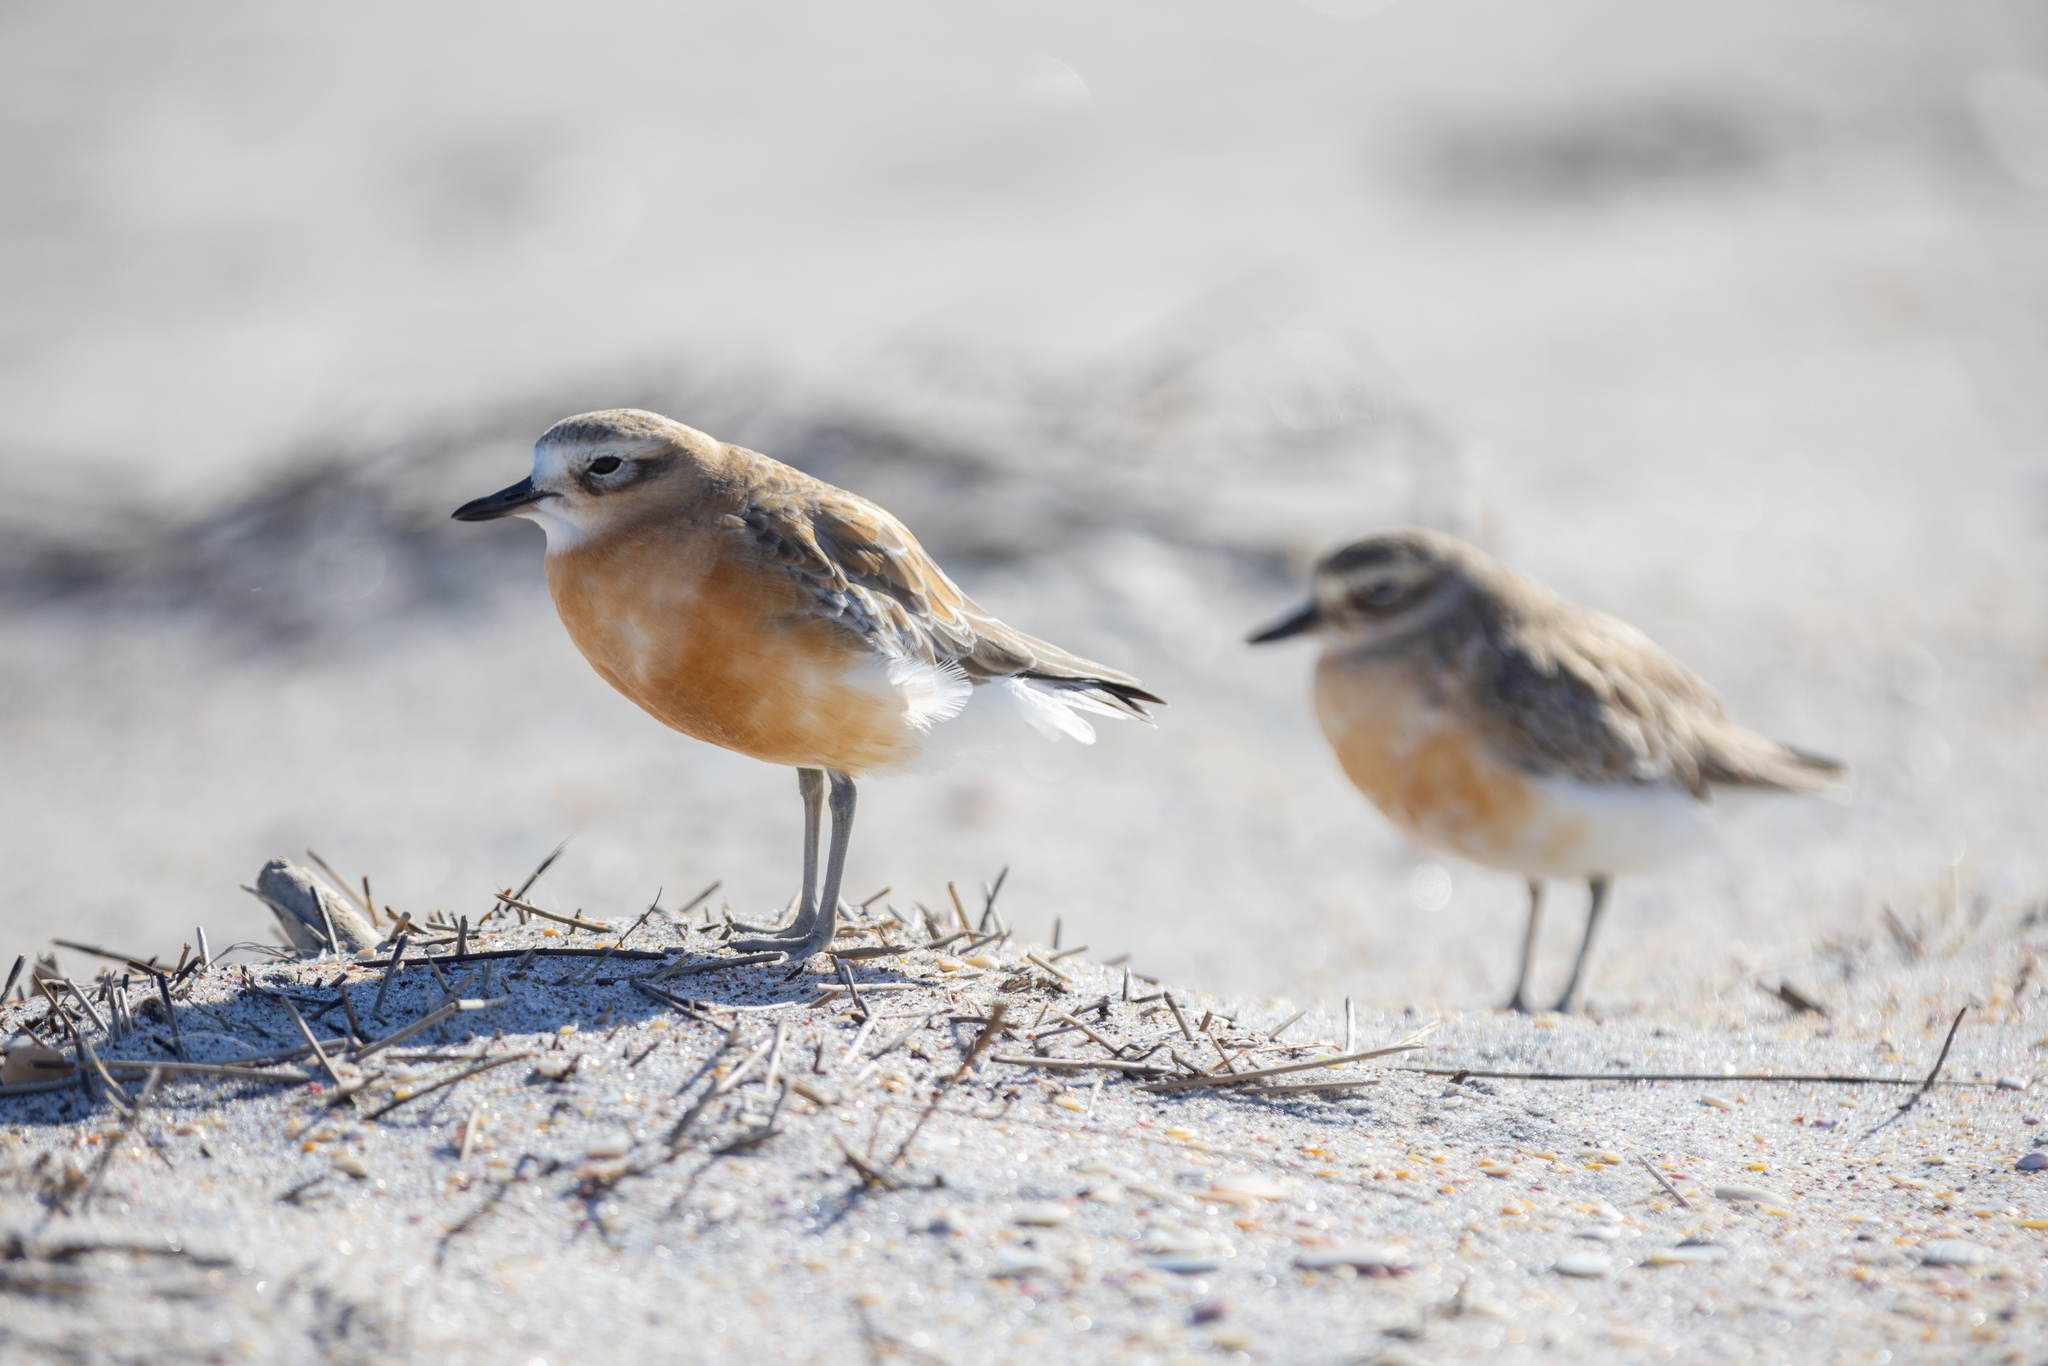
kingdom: Animalia
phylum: Chordata
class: Aves
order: Charadriiformes
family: Charadriidae
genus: Anarhynchus
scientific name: Anarhynchus
